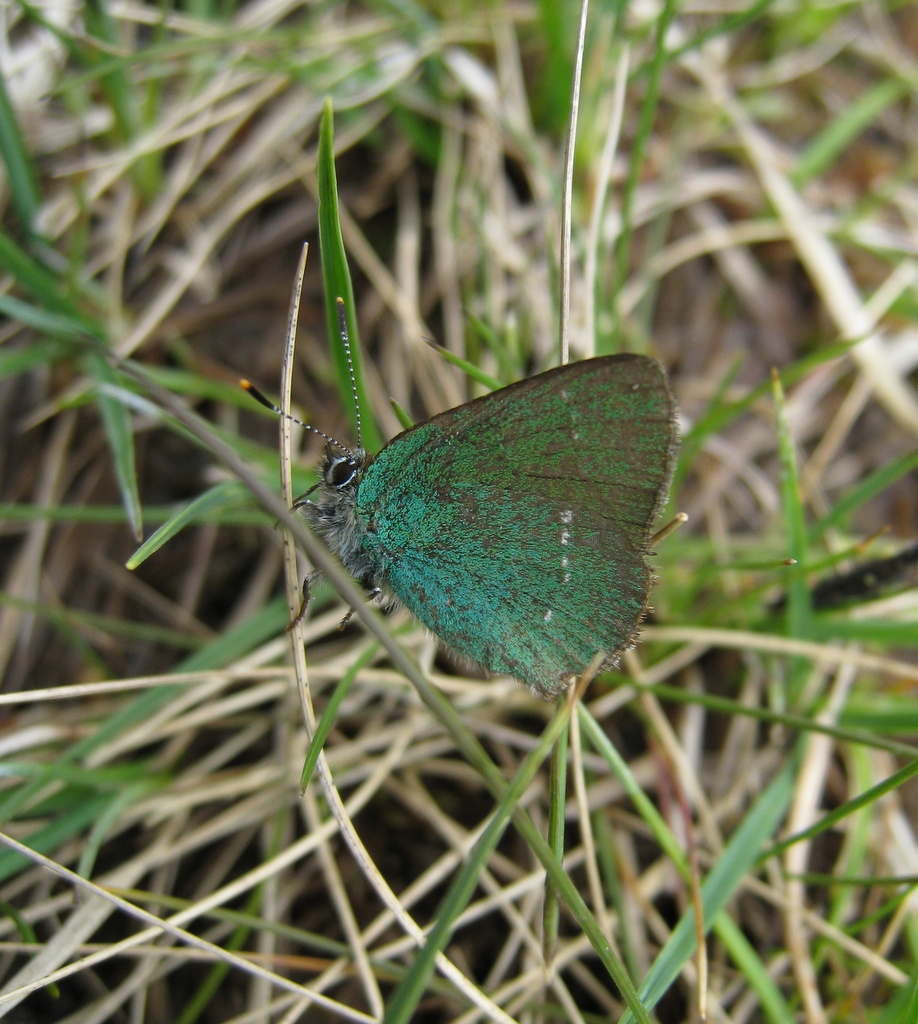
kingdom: Animalia
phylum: Arthropoda
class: Insecta
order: Lepidoptera
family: Lycaenidae
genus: Callophrys
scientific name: Callophrys rubi
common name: Green hairstreak
